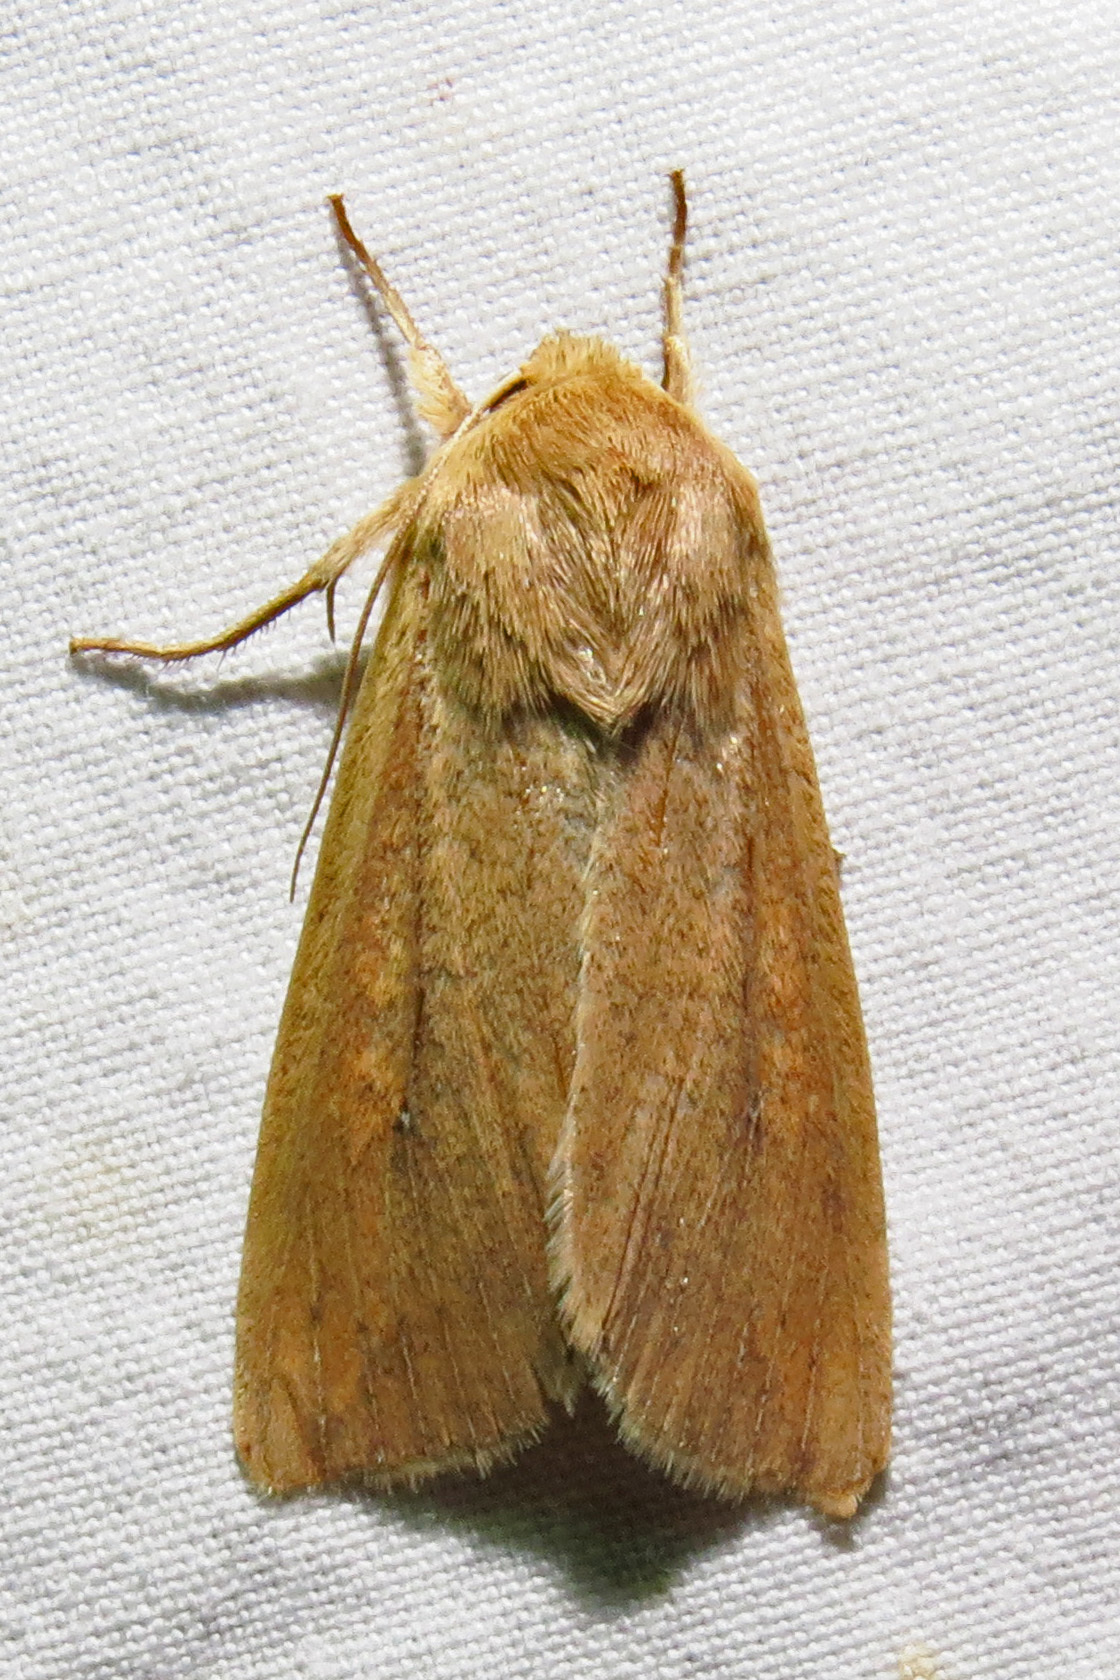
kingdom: Animalia
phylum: Arthropoda
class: Insecta
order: Lepidoptera
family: Noctuidae
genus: Mythimna
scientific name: Mythimna unipuncta
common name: White-speck
